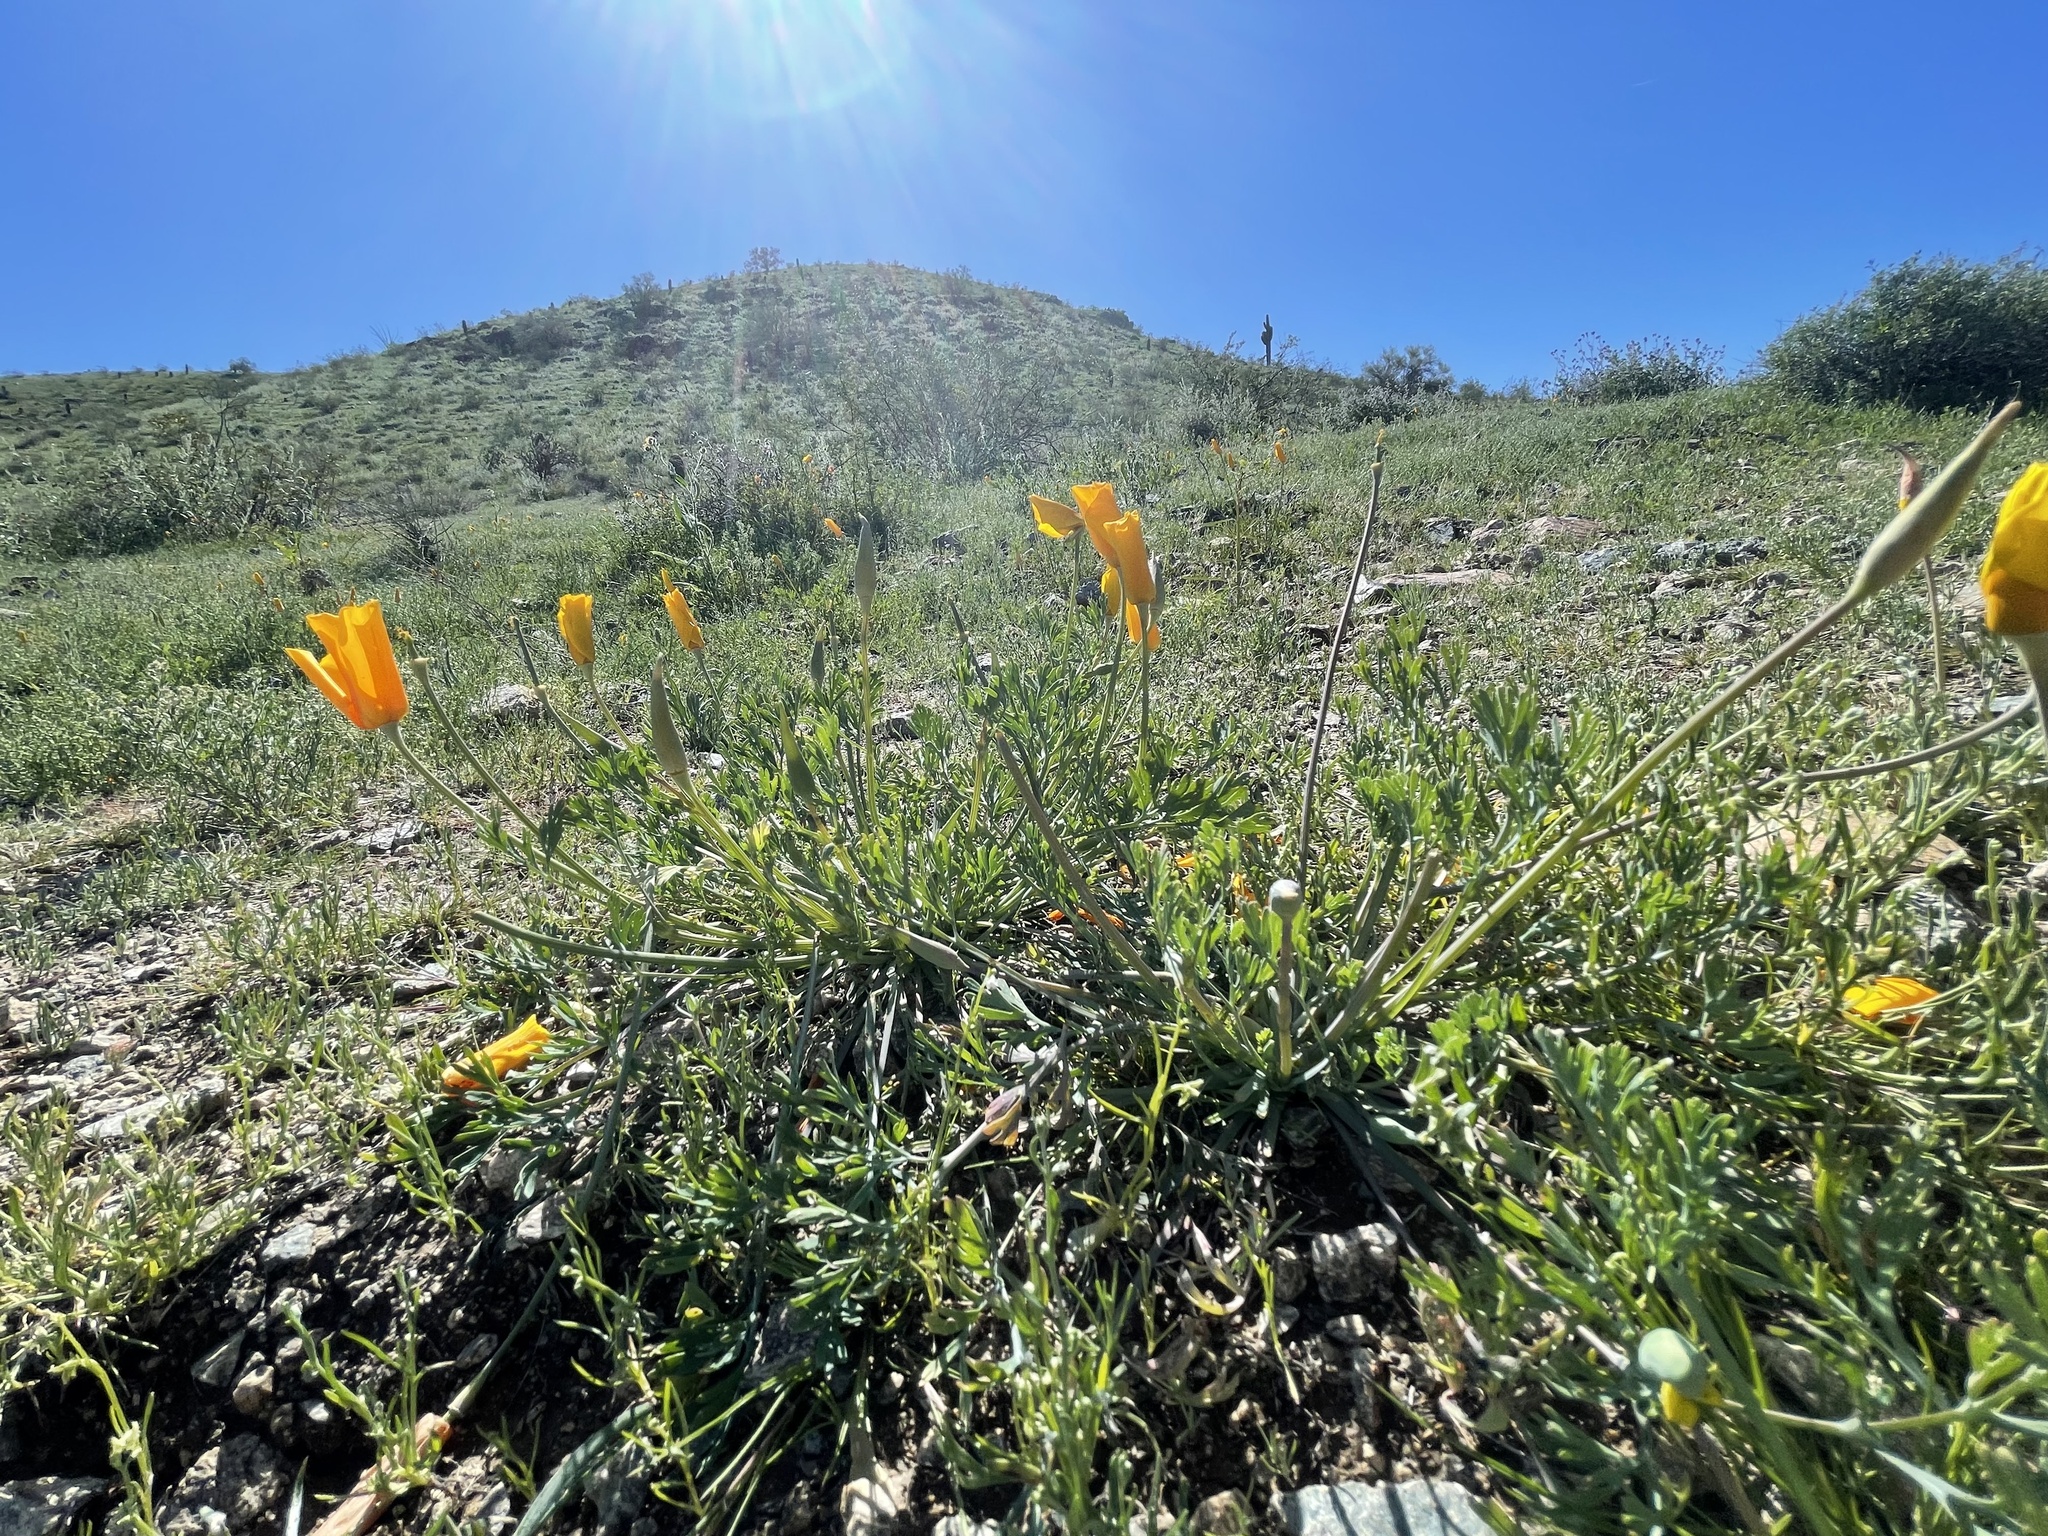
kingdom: Plantae
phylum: Tracheophyta
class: Magnoliopsida
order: Ranunculales
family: Papaveraceae
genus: Eschscholzia
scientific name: Eschscholzia californica
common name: California poppy
